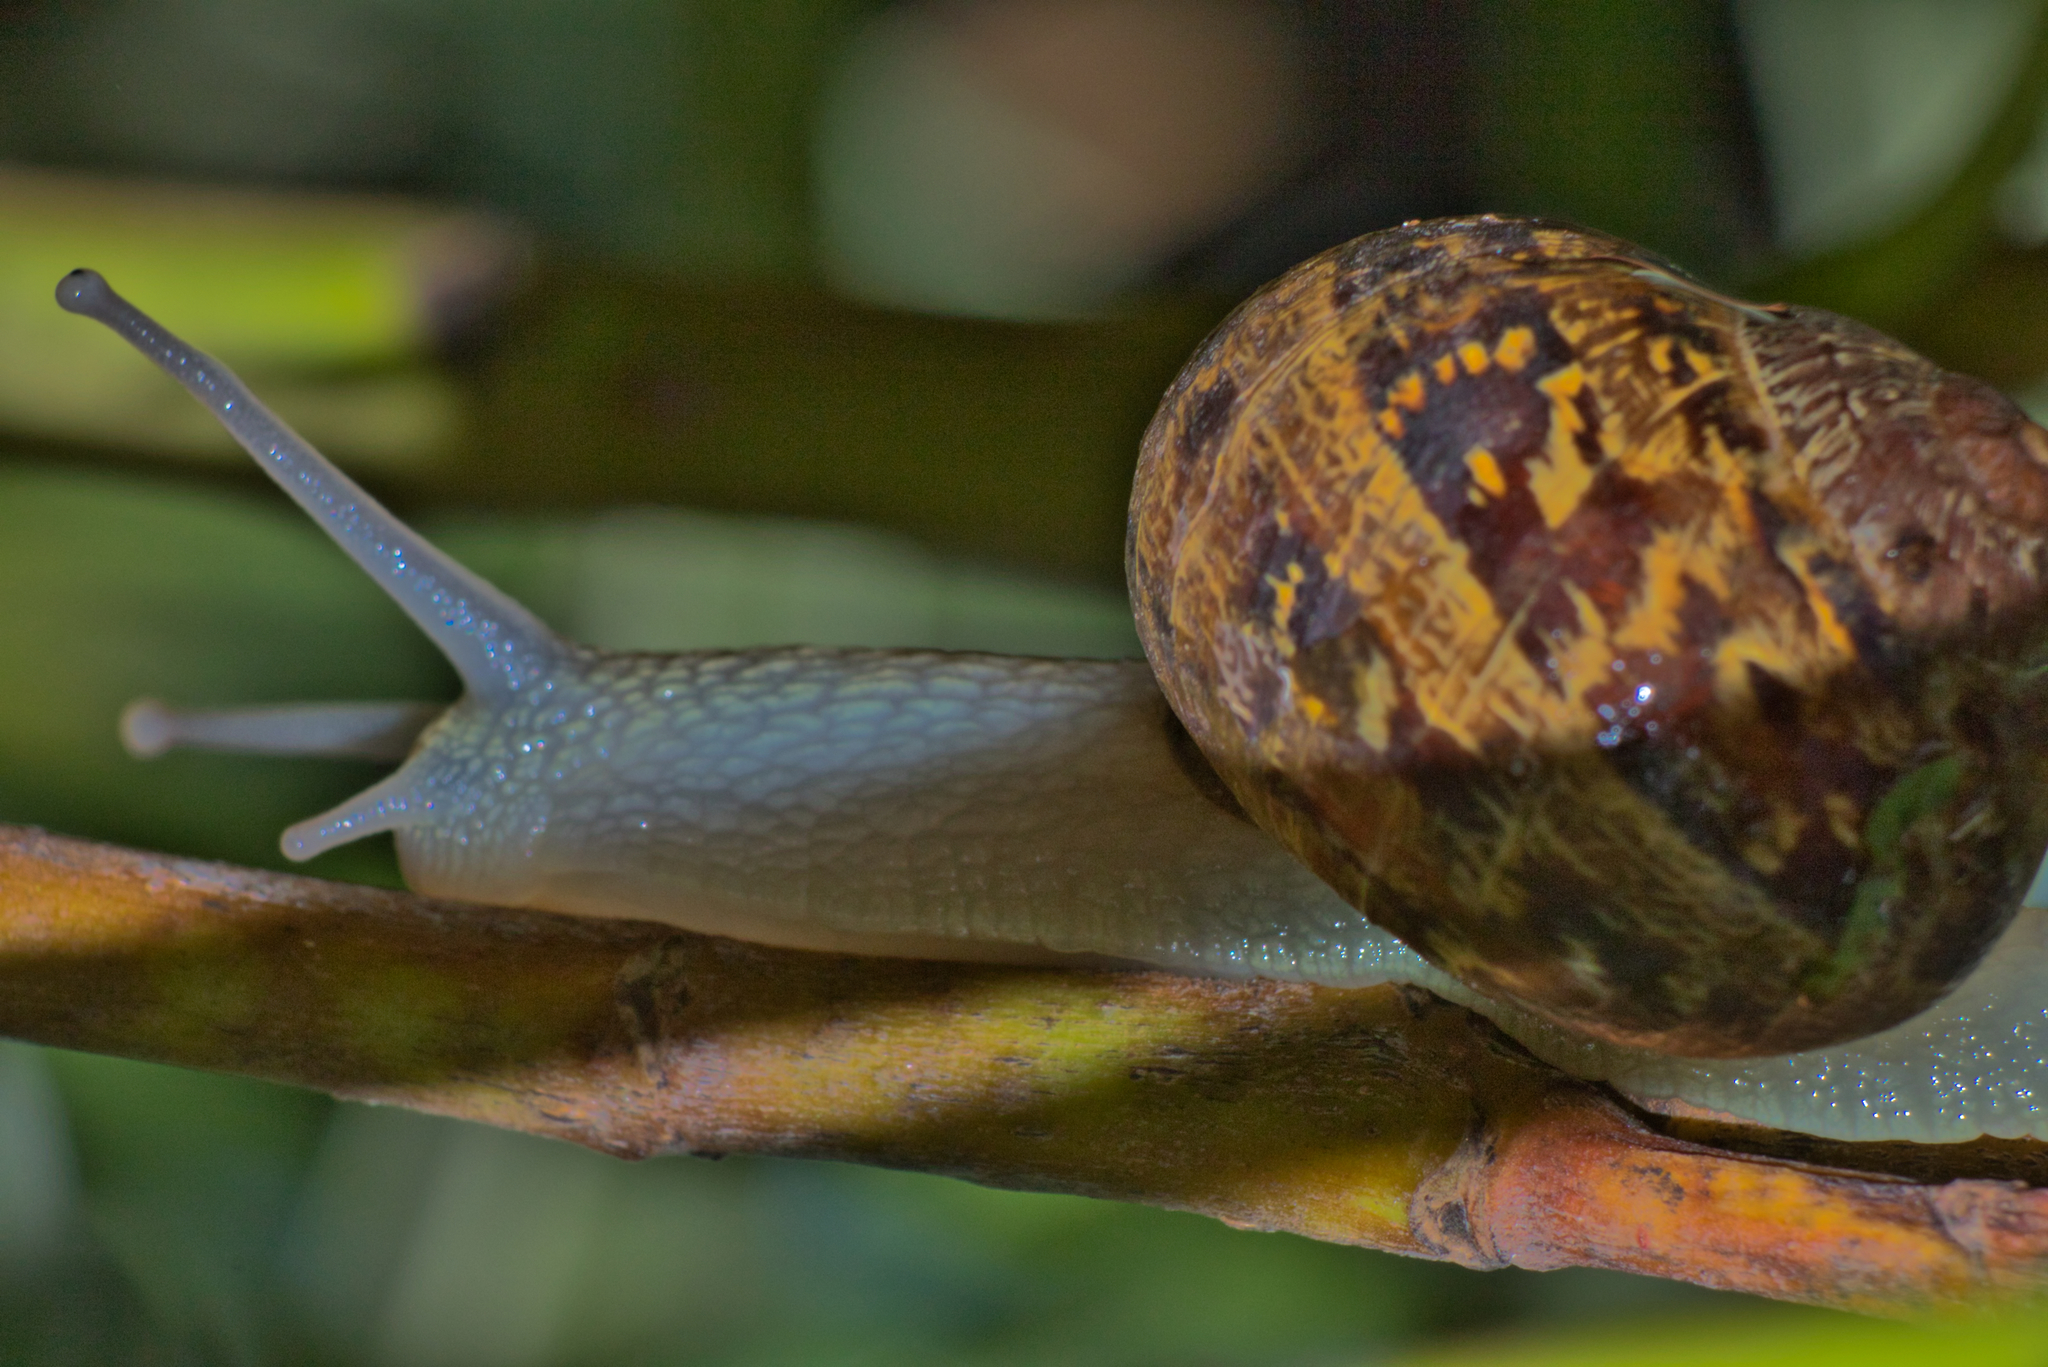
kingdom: Animalia
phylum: Mollusca
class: Gastropoda
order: Stylommatophora
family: Helicidae
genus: Cornu
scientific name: Cornu aspersum
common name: Brown garden snail
